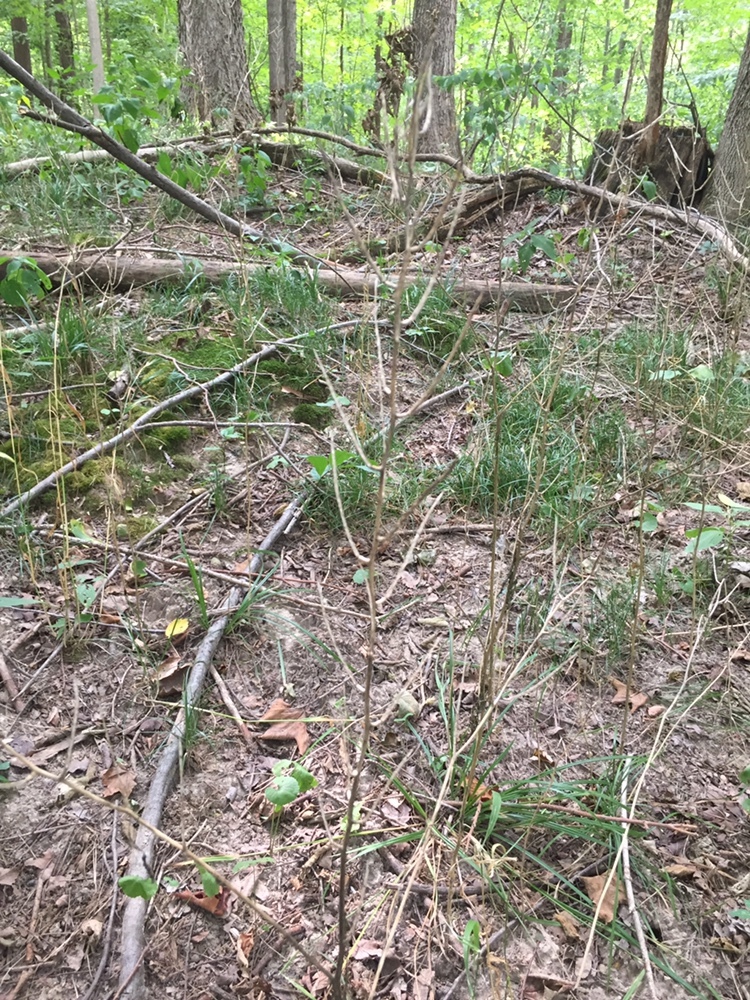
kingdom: Plantae
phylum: Tracheophyta
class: Magnoliopsida
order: Brassicales
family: Brassicaceae
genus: Alliaria
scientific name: Alliaria petiolata
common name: Garlic mustard
